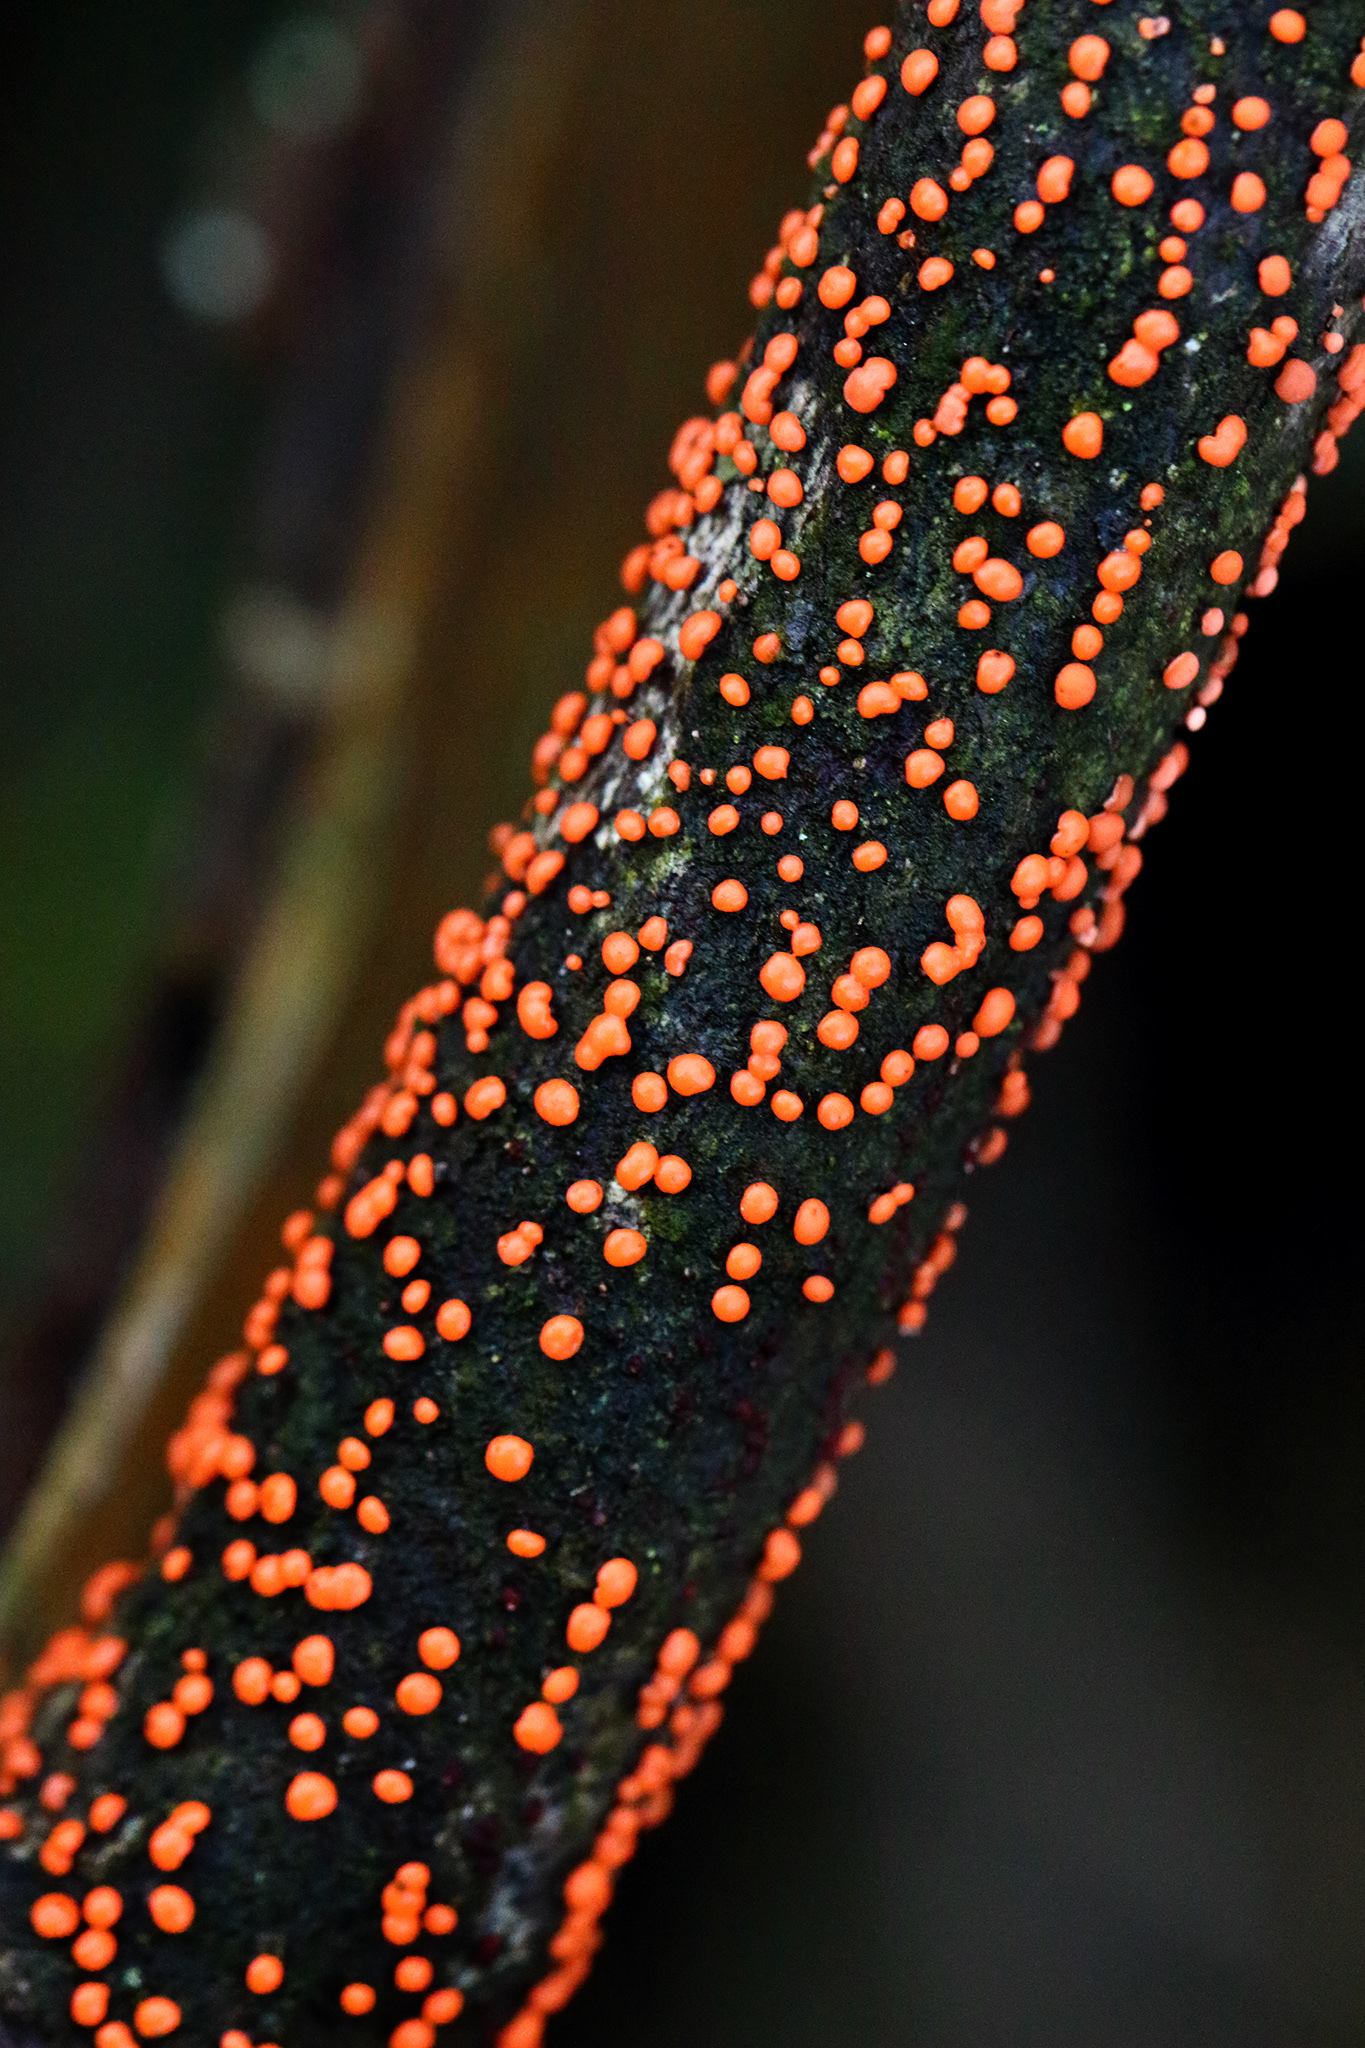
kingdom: Fungi
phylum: Ascomycota
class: Sordariomycetes
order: Hypocreales
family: Nectriaceae
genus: Nectria
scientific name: Nectria cinnabarina
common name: Coral spot
